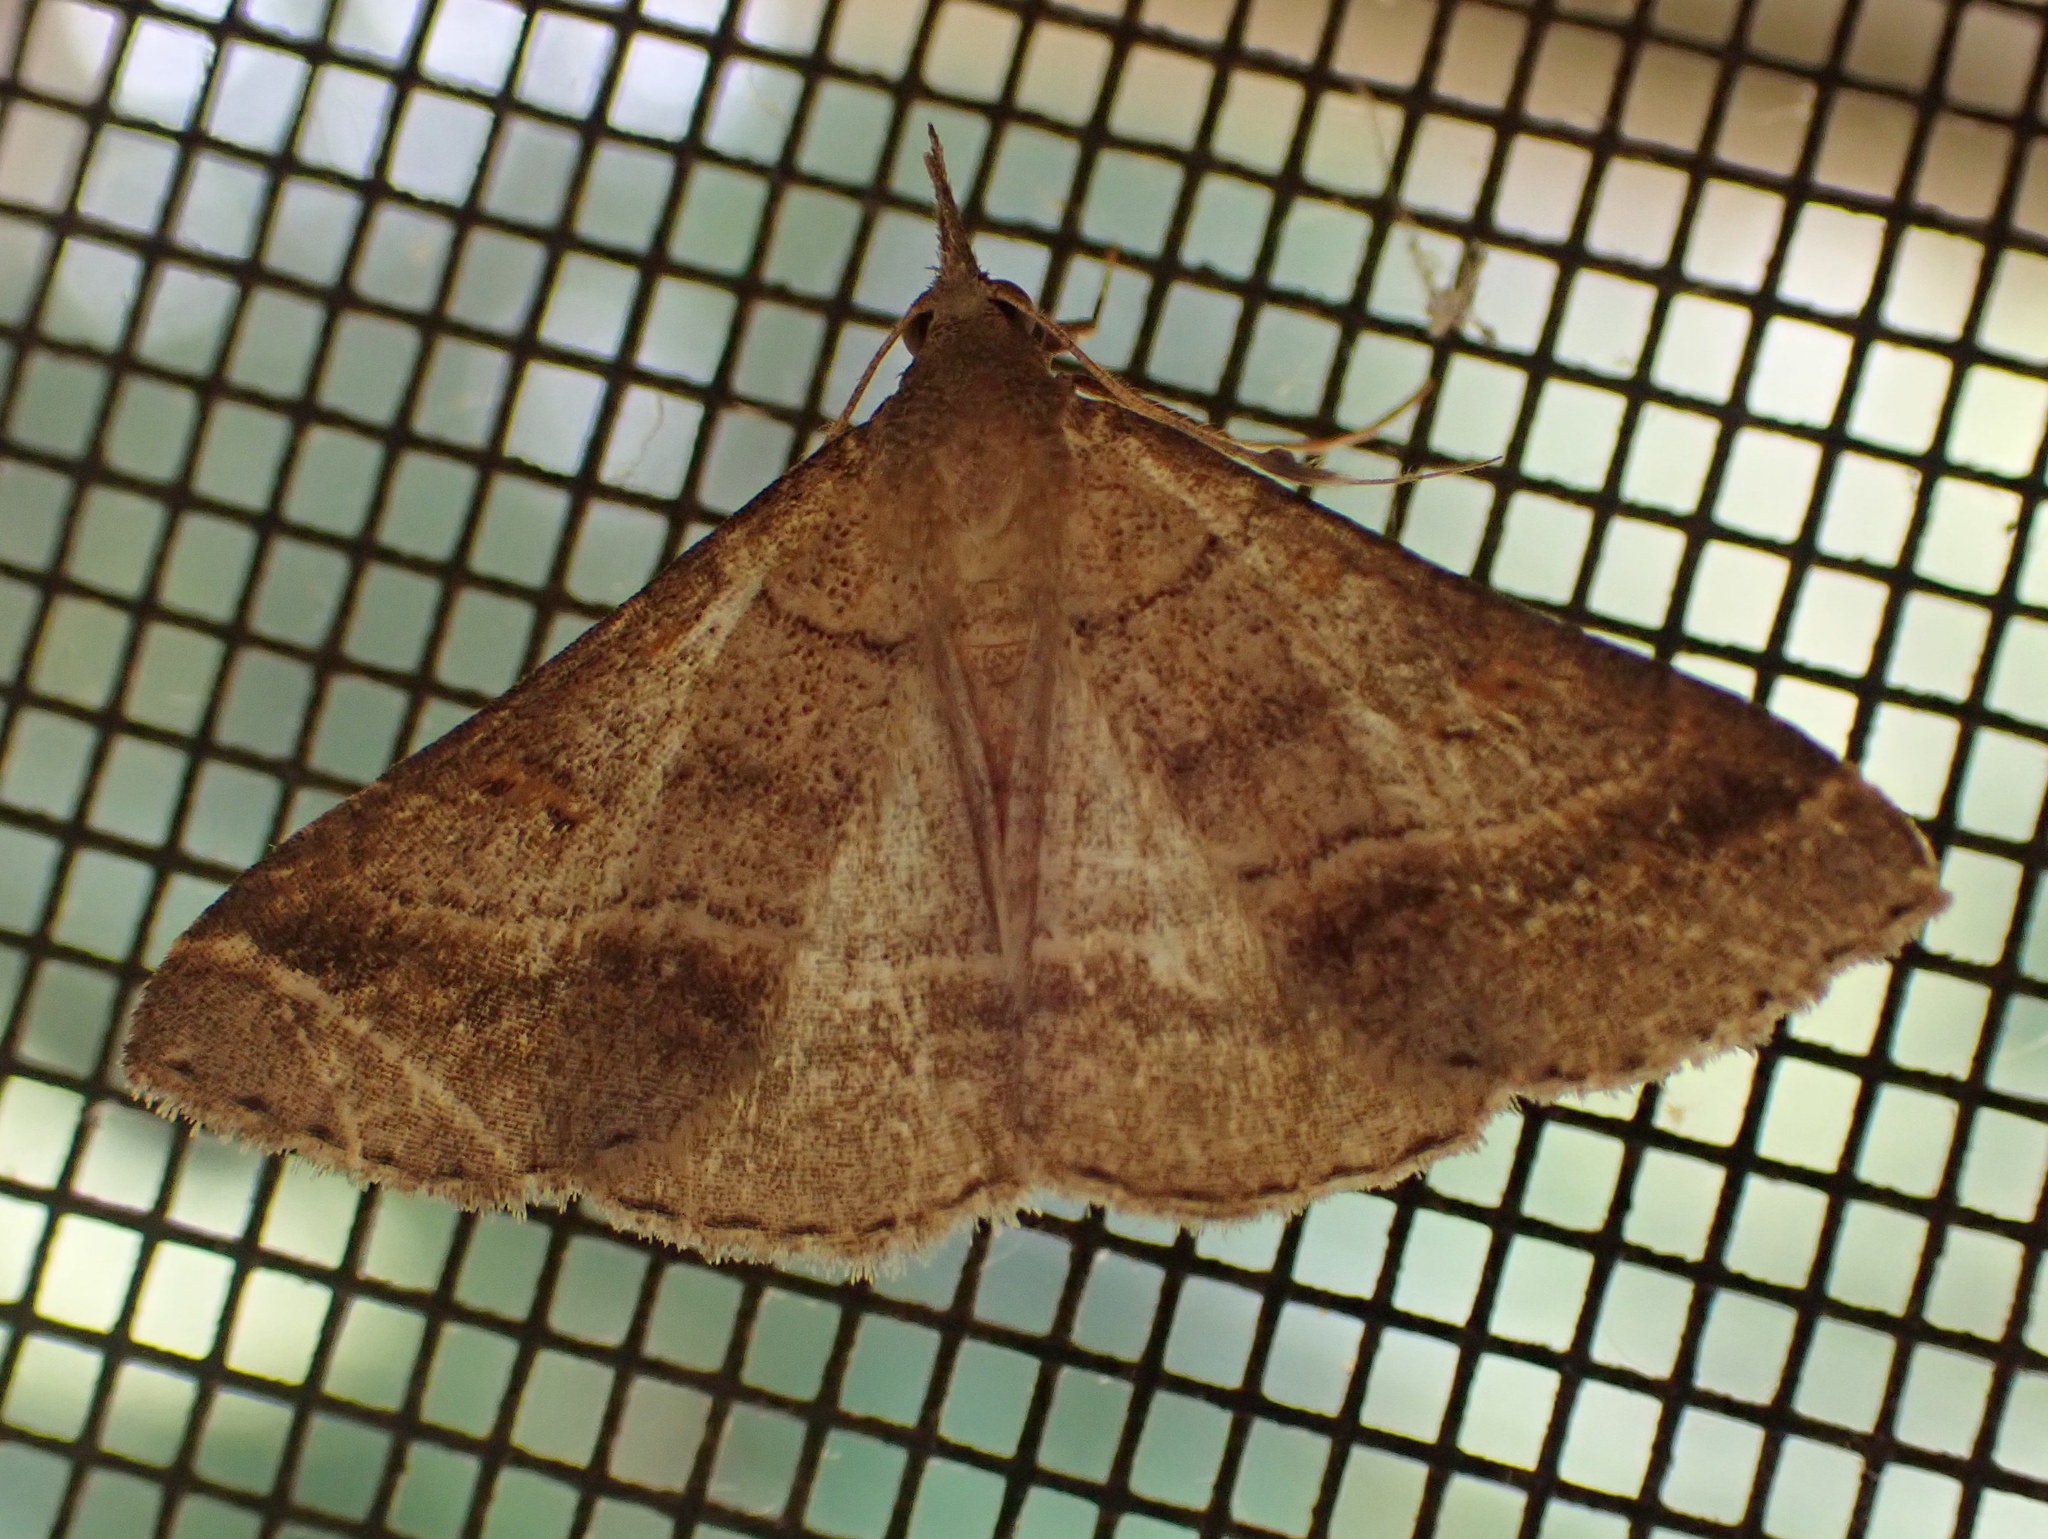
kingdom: Animalia
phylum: Arthropoda
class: Insecta
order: Lepidoptera
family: Erebidae
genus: Renia
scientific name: Renia flavipunctalis
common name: Yellow-spotted renia moth
